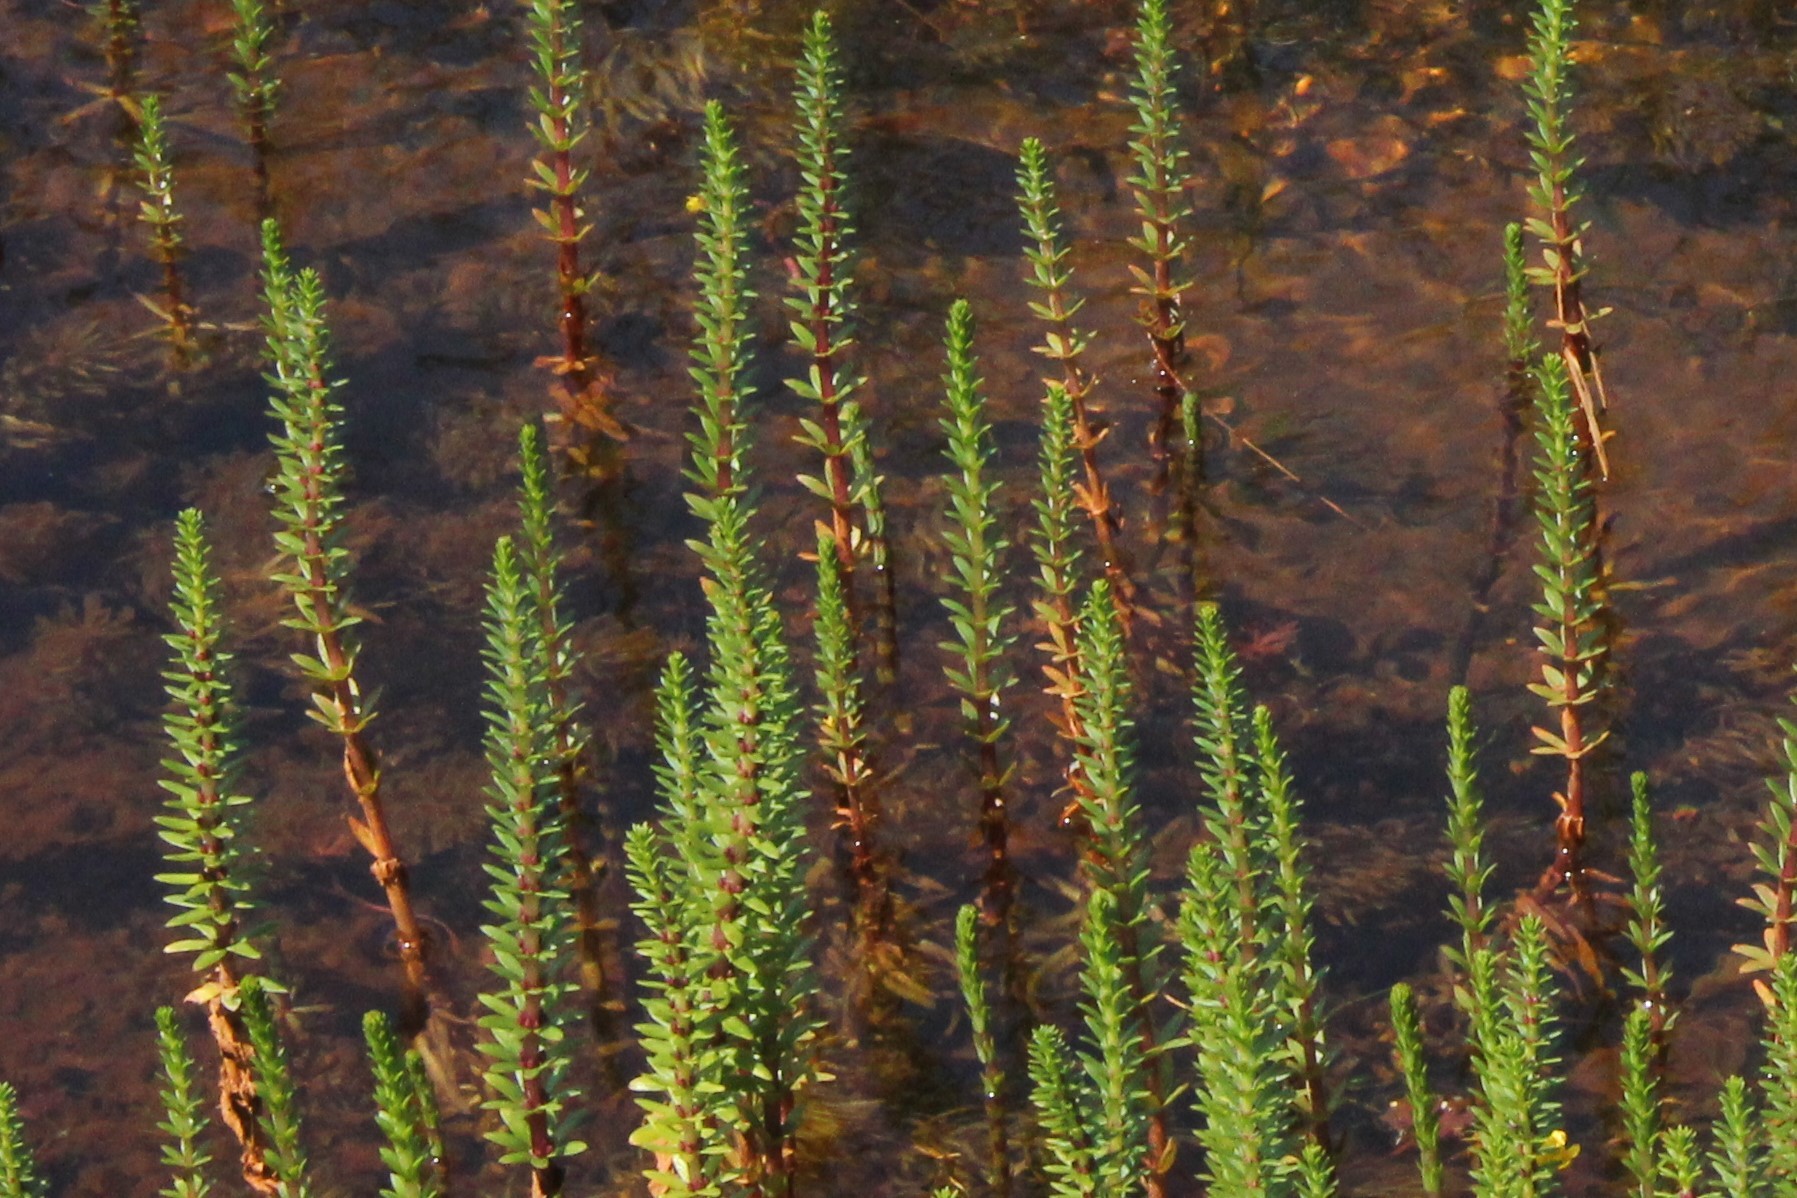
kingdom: Plantae
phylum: Tracheophyta
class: Magnoliopsida
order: Lamiales
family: Plantaginaceae
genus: Hippuris
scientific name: Hippuris lanceolata
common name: Lance-leaved mare's-tail
